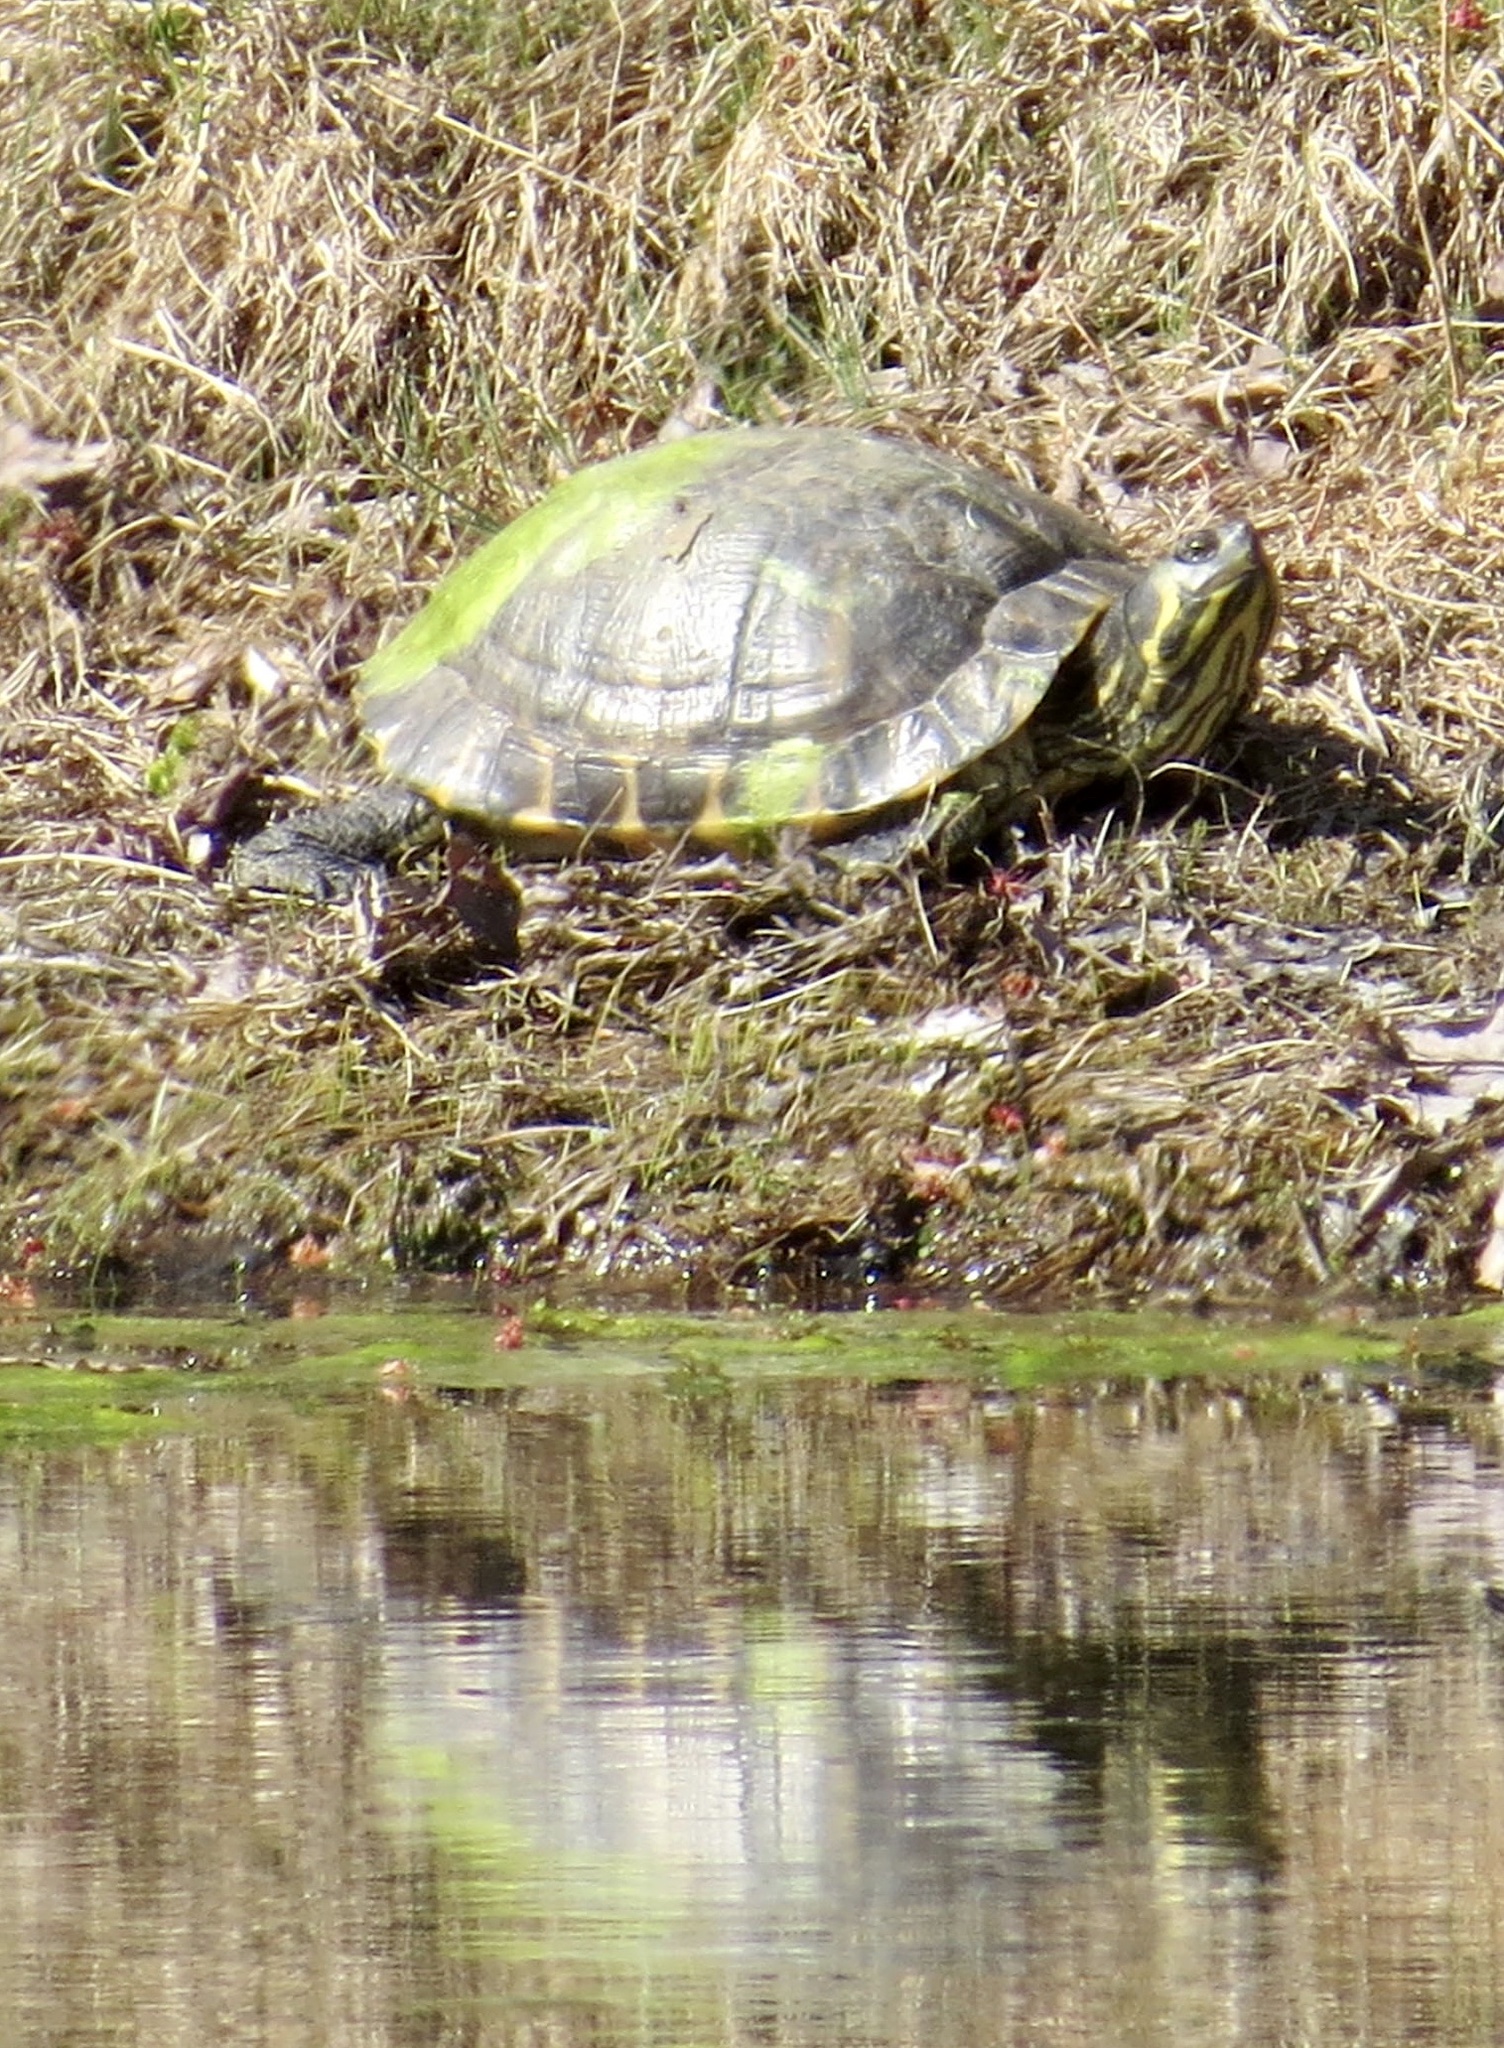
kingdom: Animalia
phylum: Chordata
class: Testudines
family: Emydidae
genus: Trachemys
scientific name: Trachemys scripta
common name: Slider
